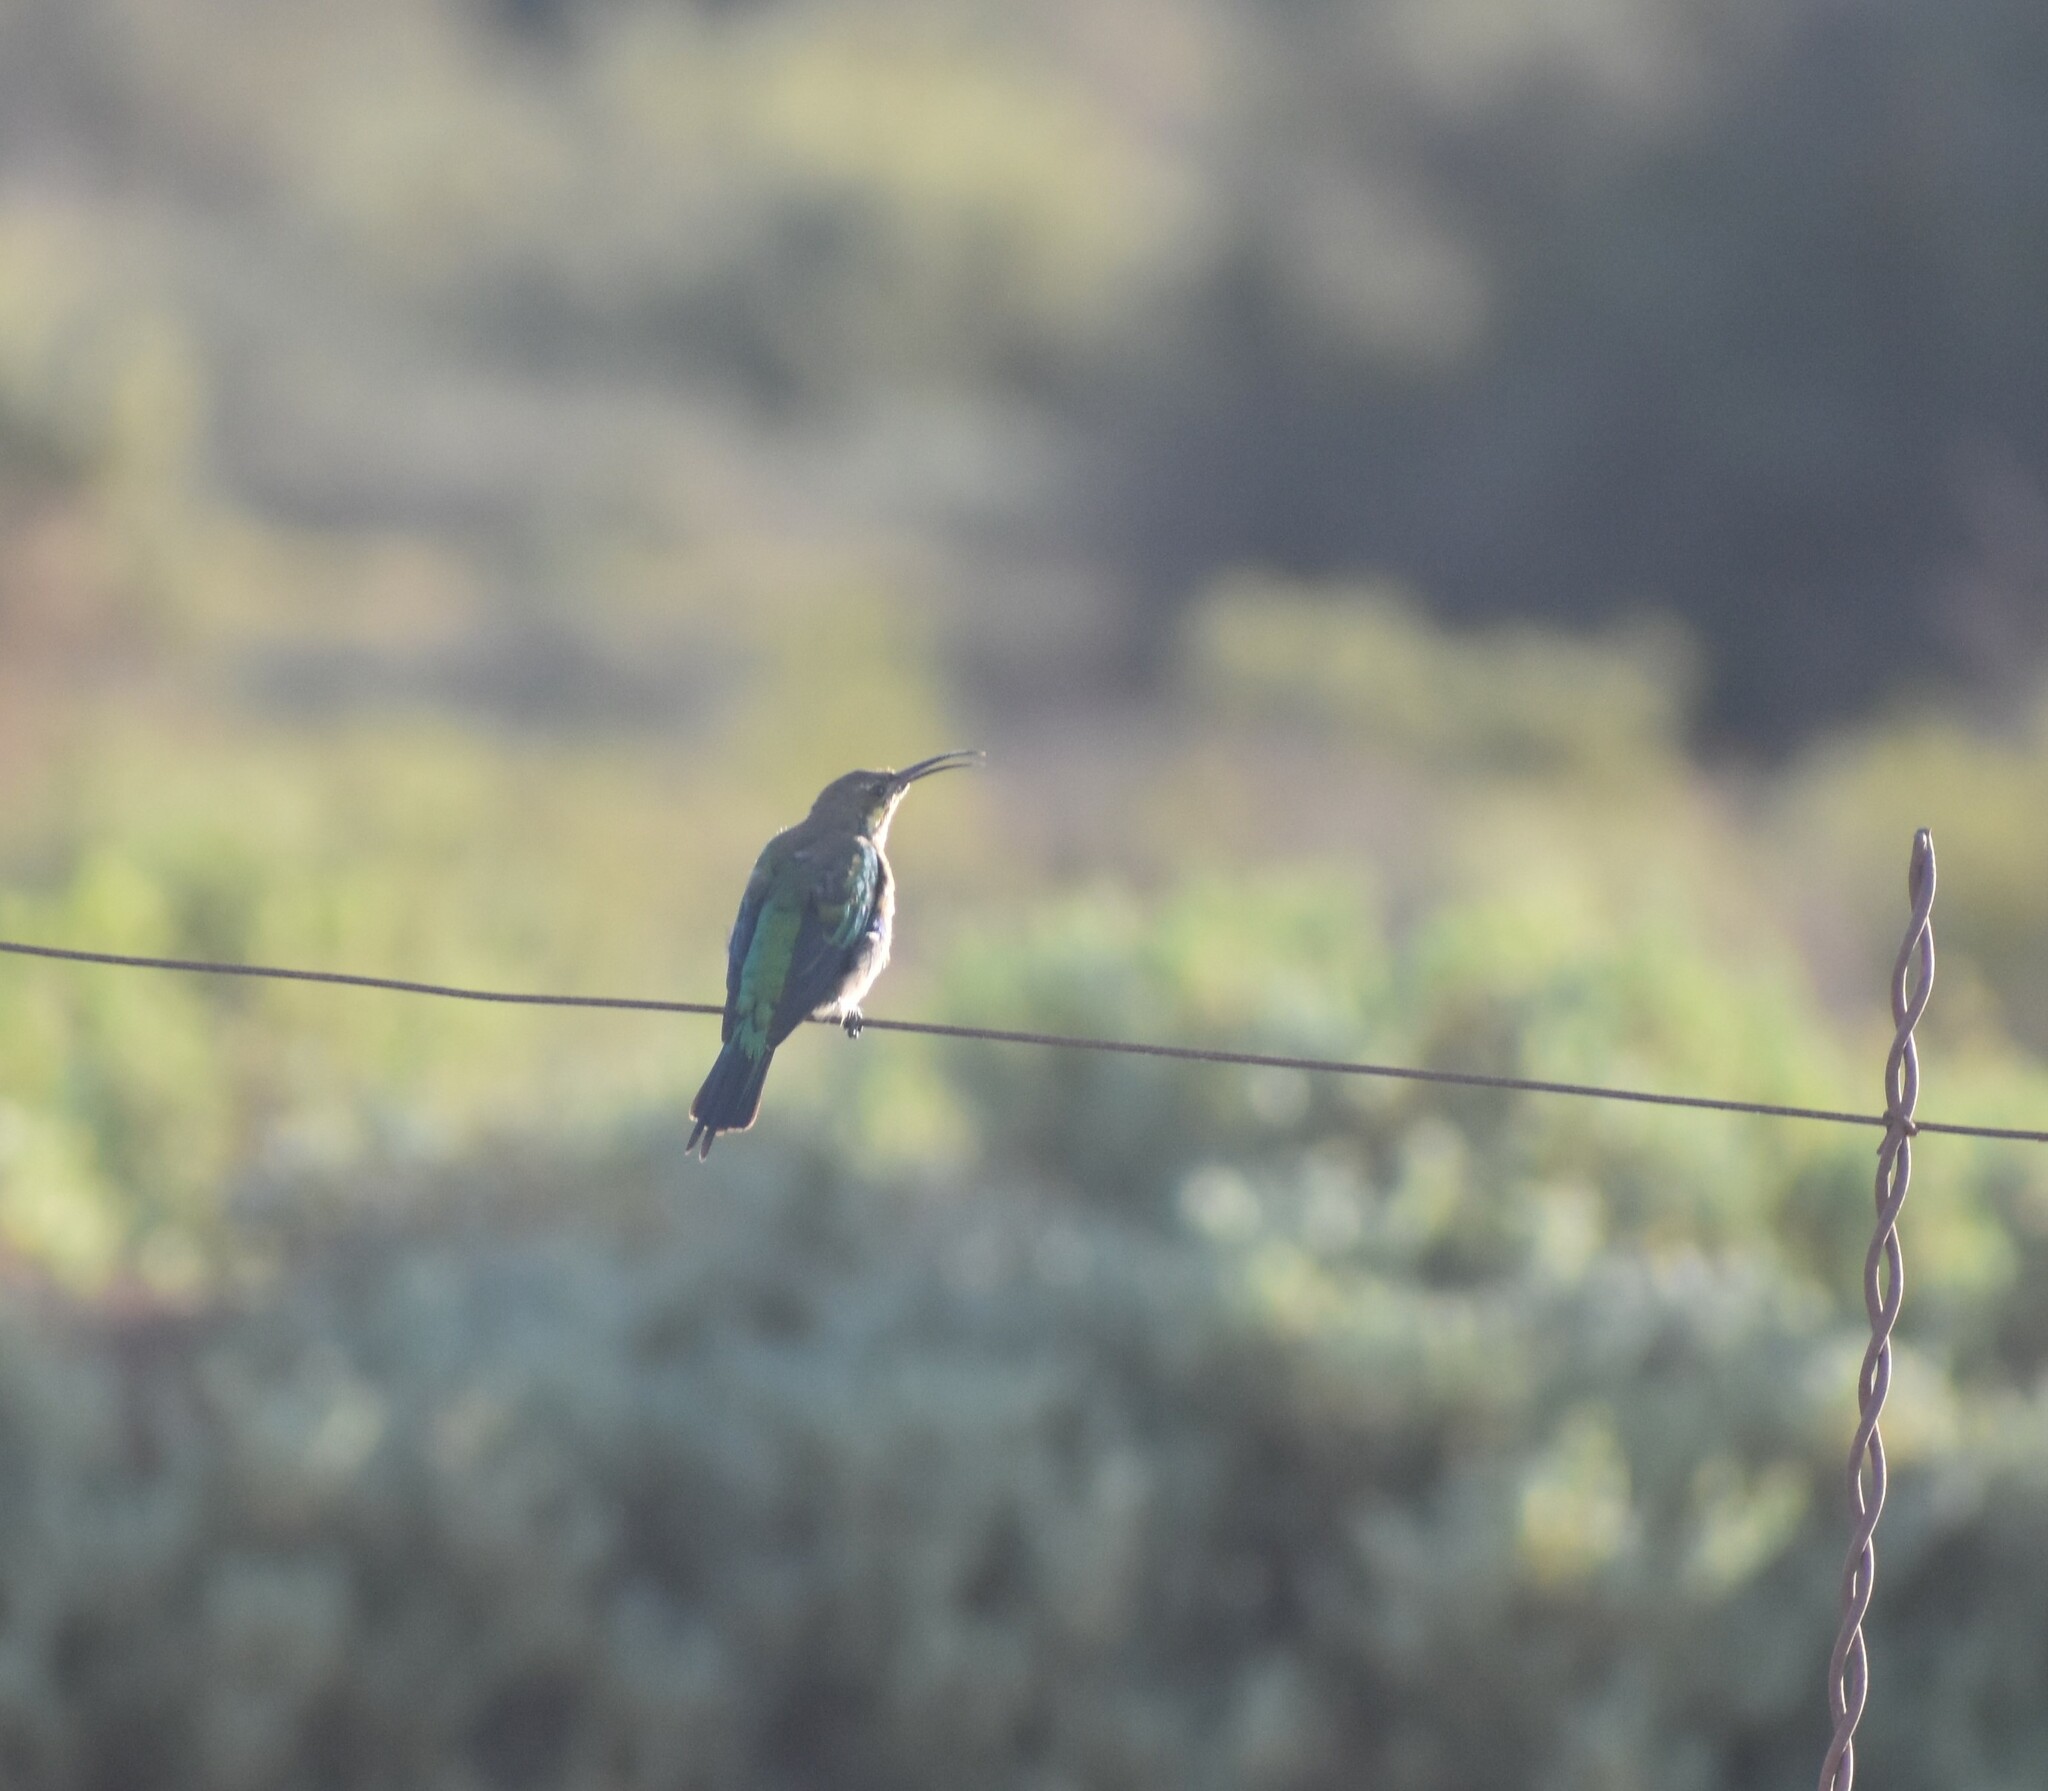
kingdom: Animalia
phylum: Chordata
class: Aves
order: Passeriformes
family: Nectariniidae
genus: Nectarinia
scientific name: Nectarinia famosa
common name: Malachite sunbird
